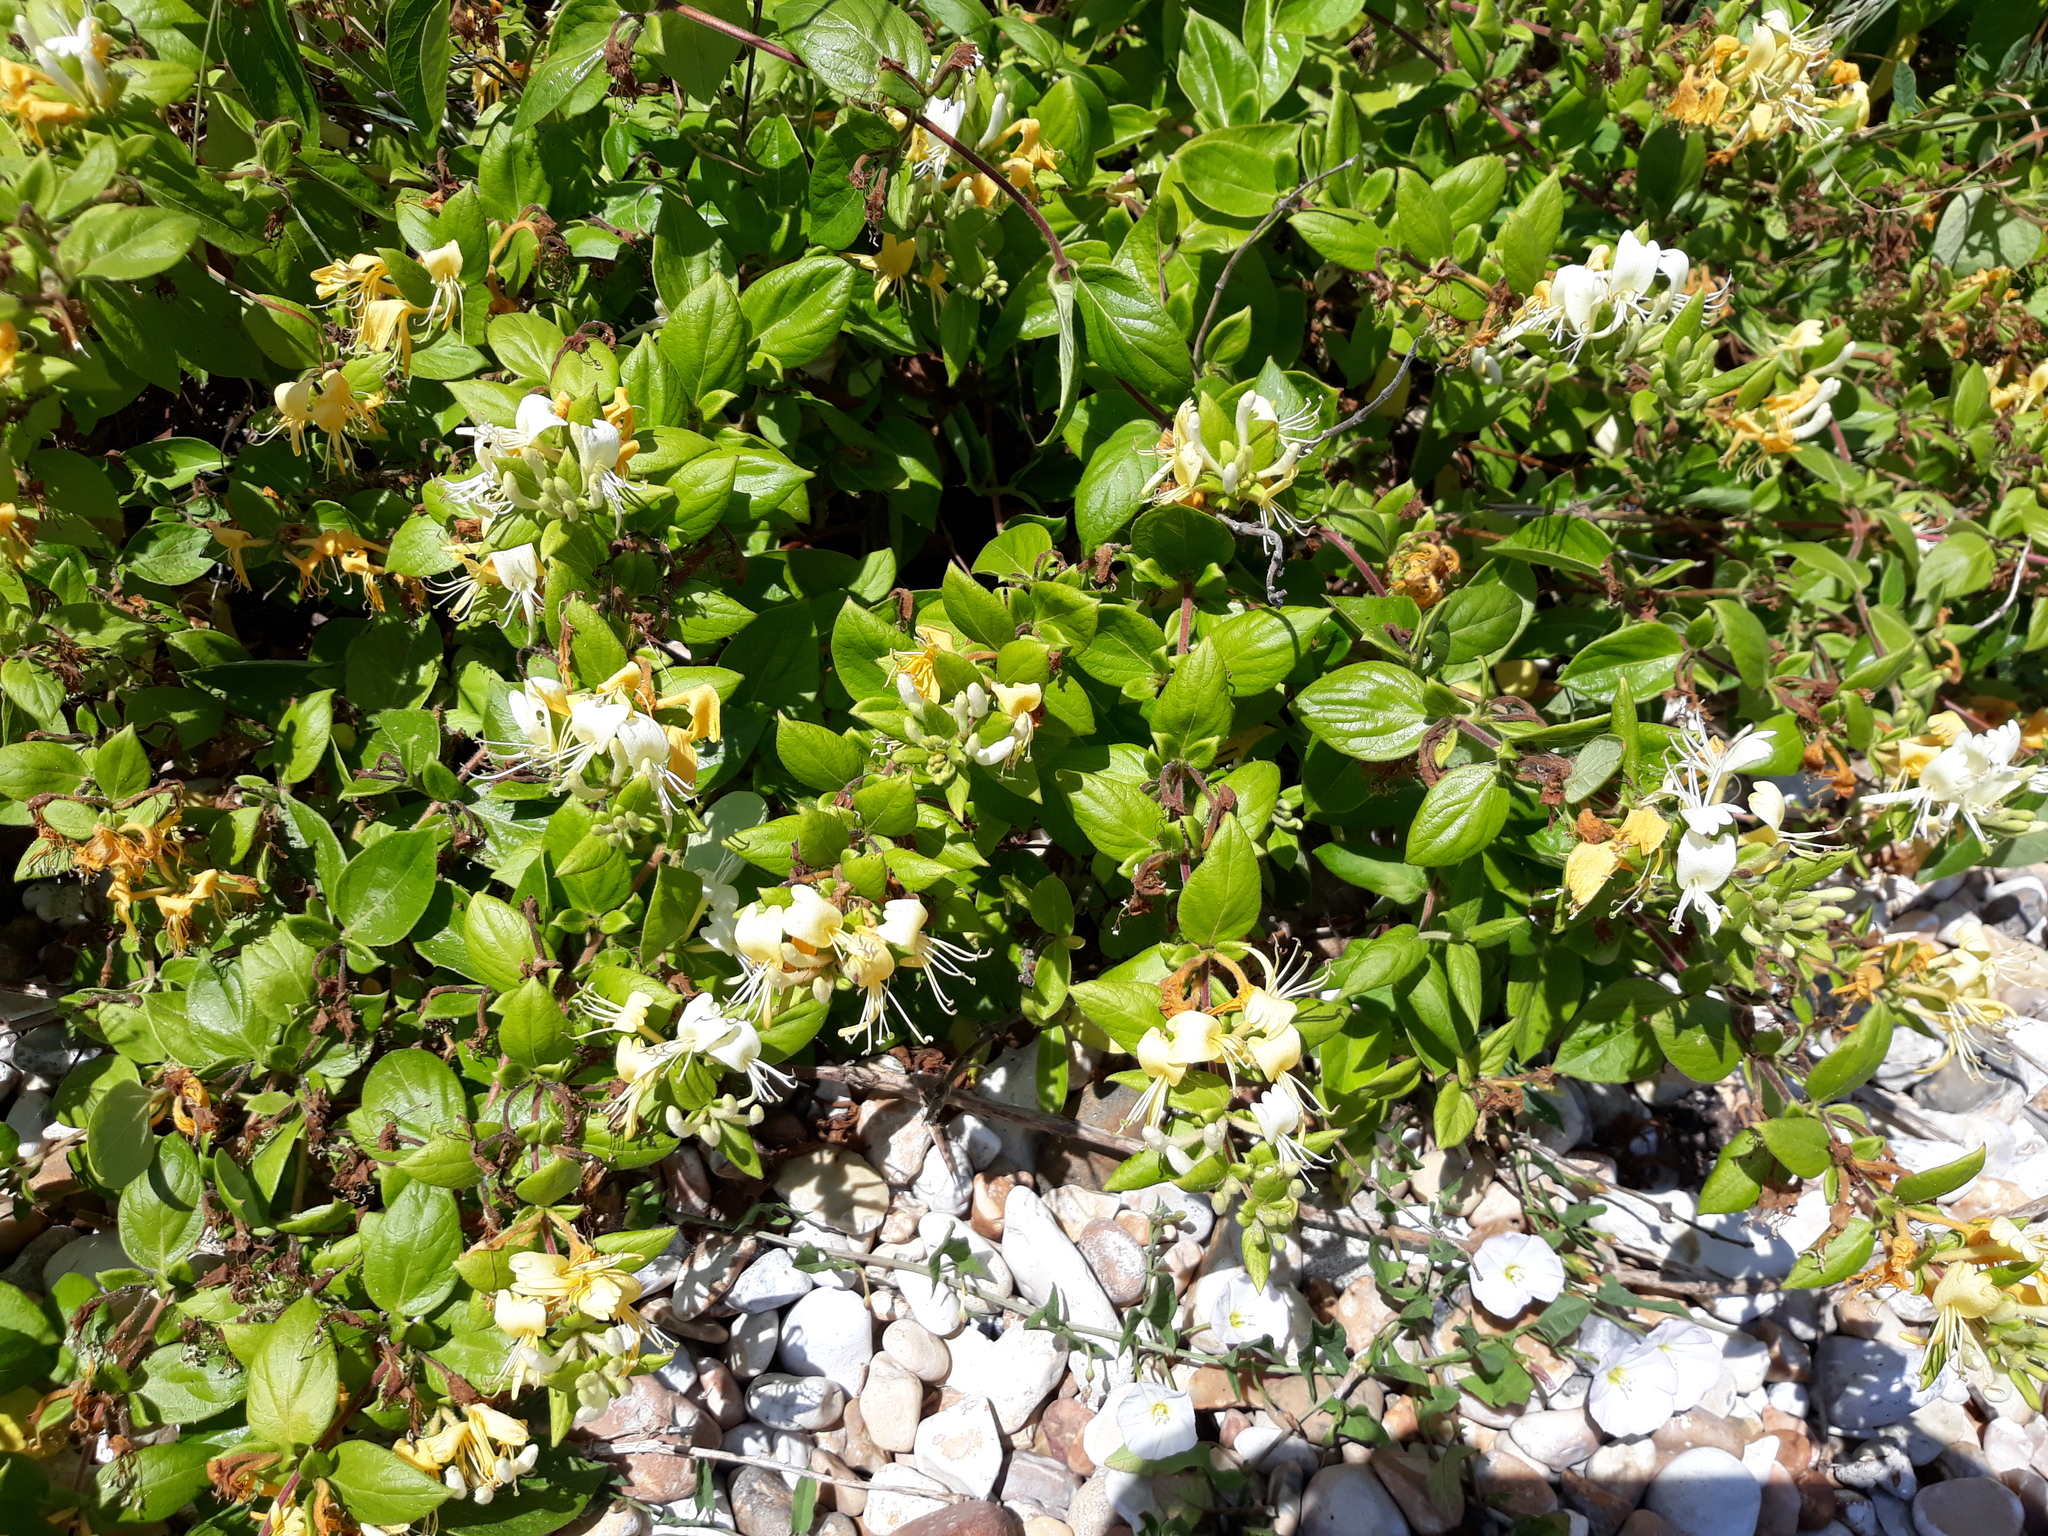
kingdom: Plantae
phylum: Tracheophyta
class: Magnoliopsida
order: Dipsacales
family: Caprifoliaceae
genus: Lonicera
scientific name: Lonicera japonica
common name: Japanese honeysuckle
